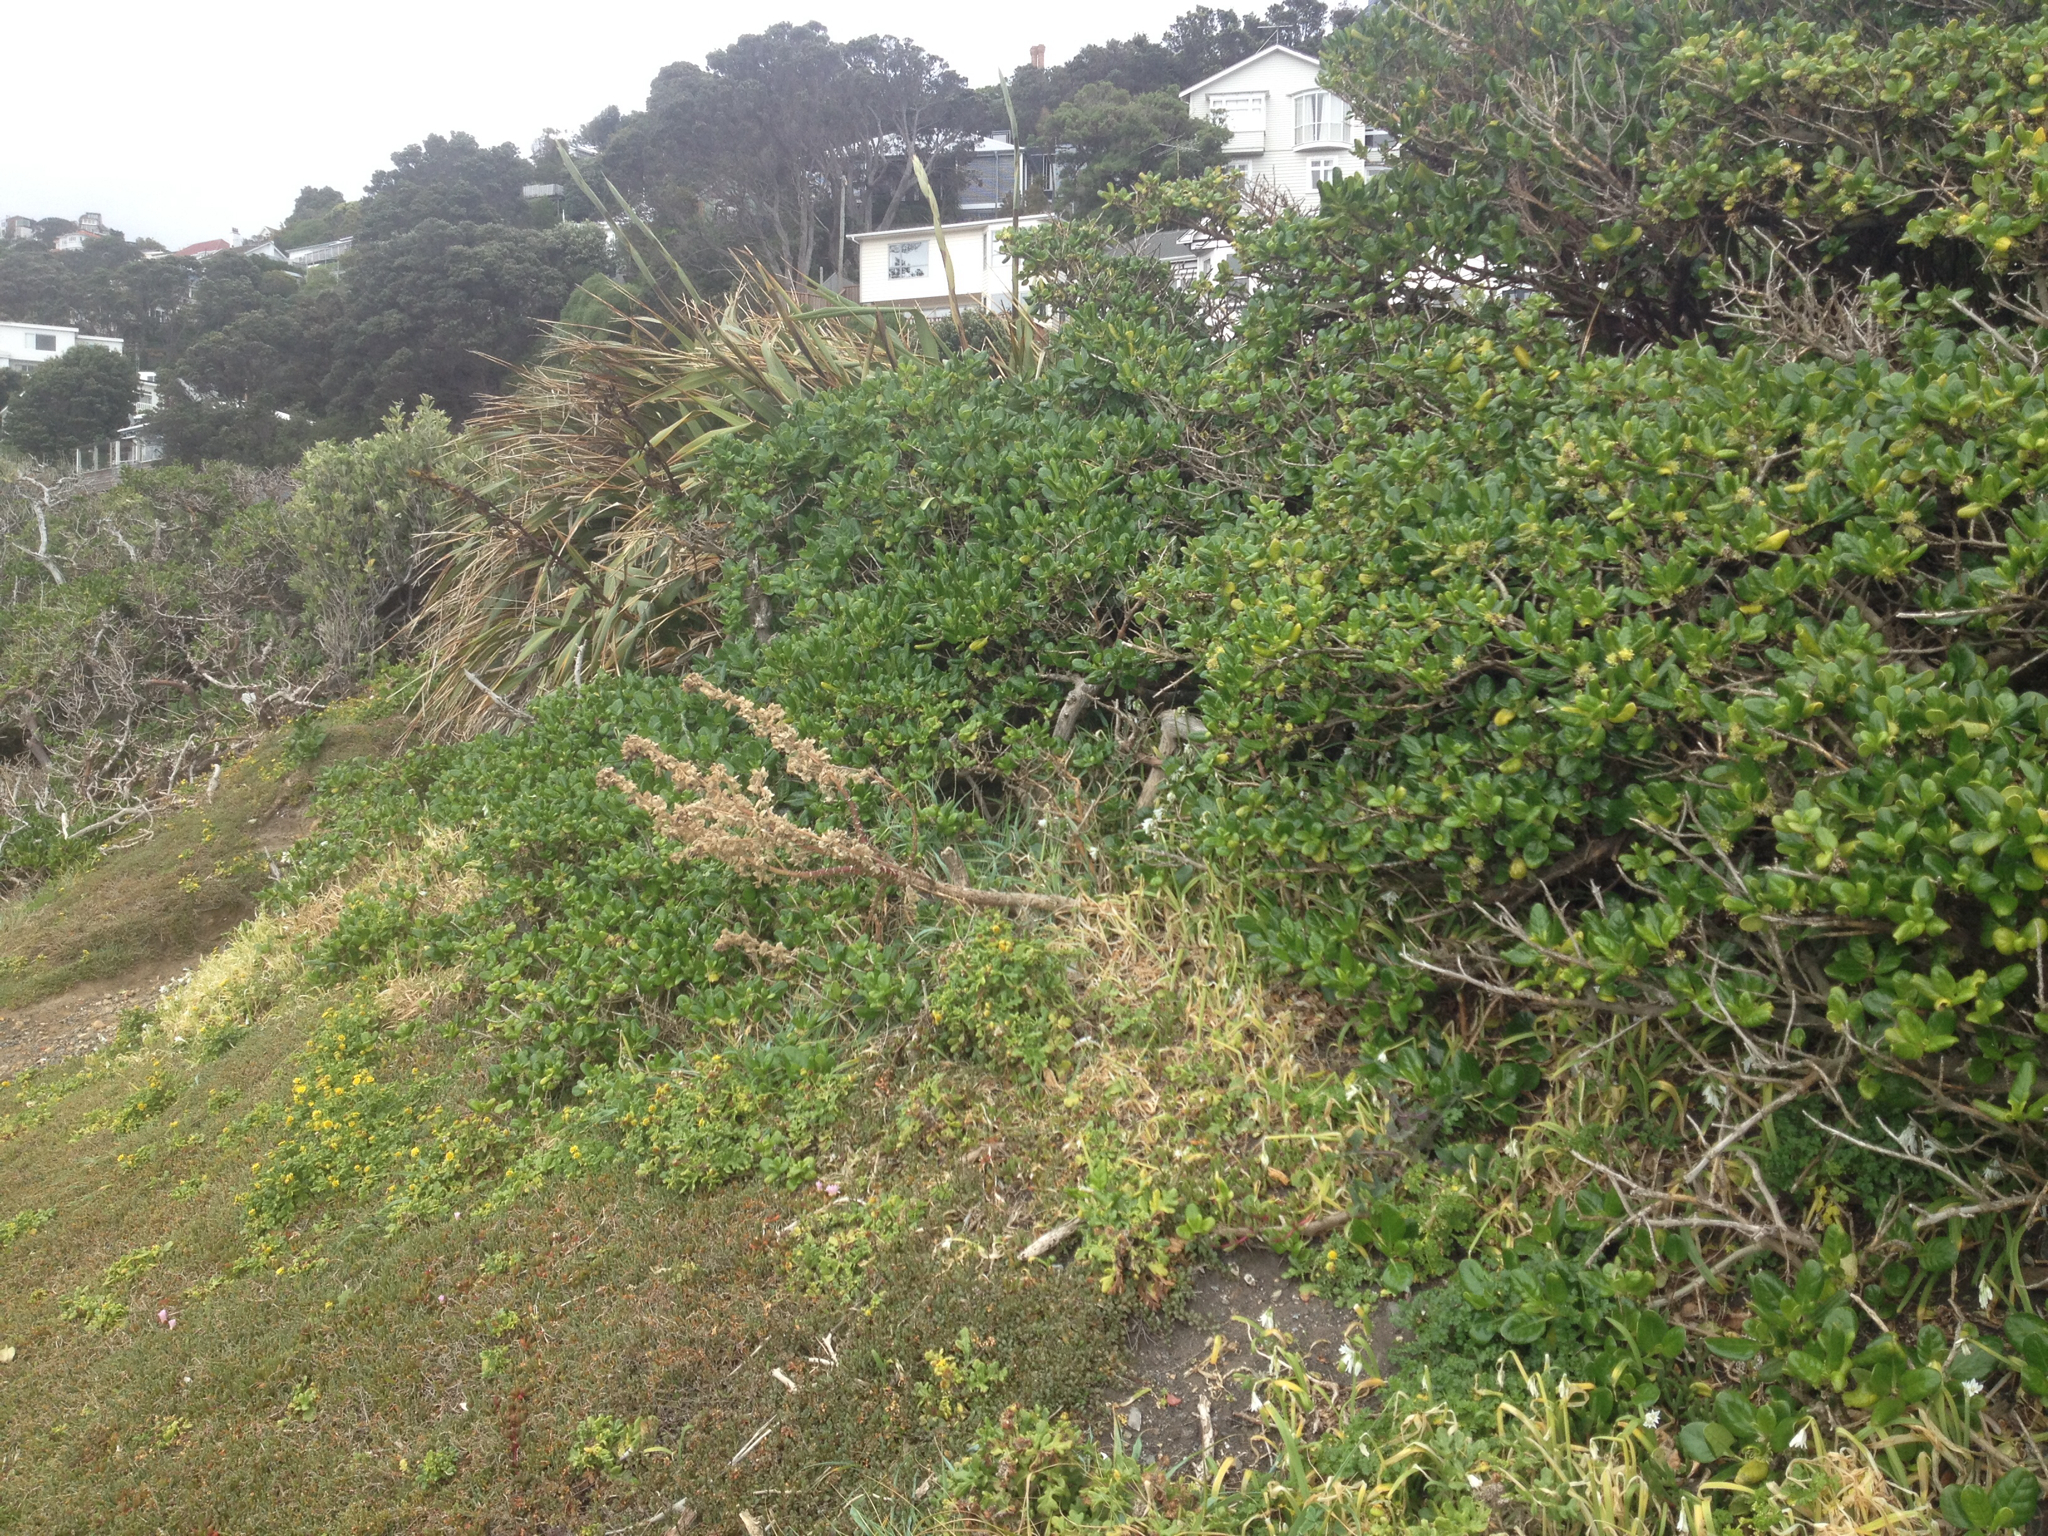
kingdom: Plantae
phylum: Tracheophyta
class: Magnoliopsida
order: Gentianales
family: Rubiaceae
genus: Coprosma
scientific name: Coprosma repens
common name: Tree bedstraw
